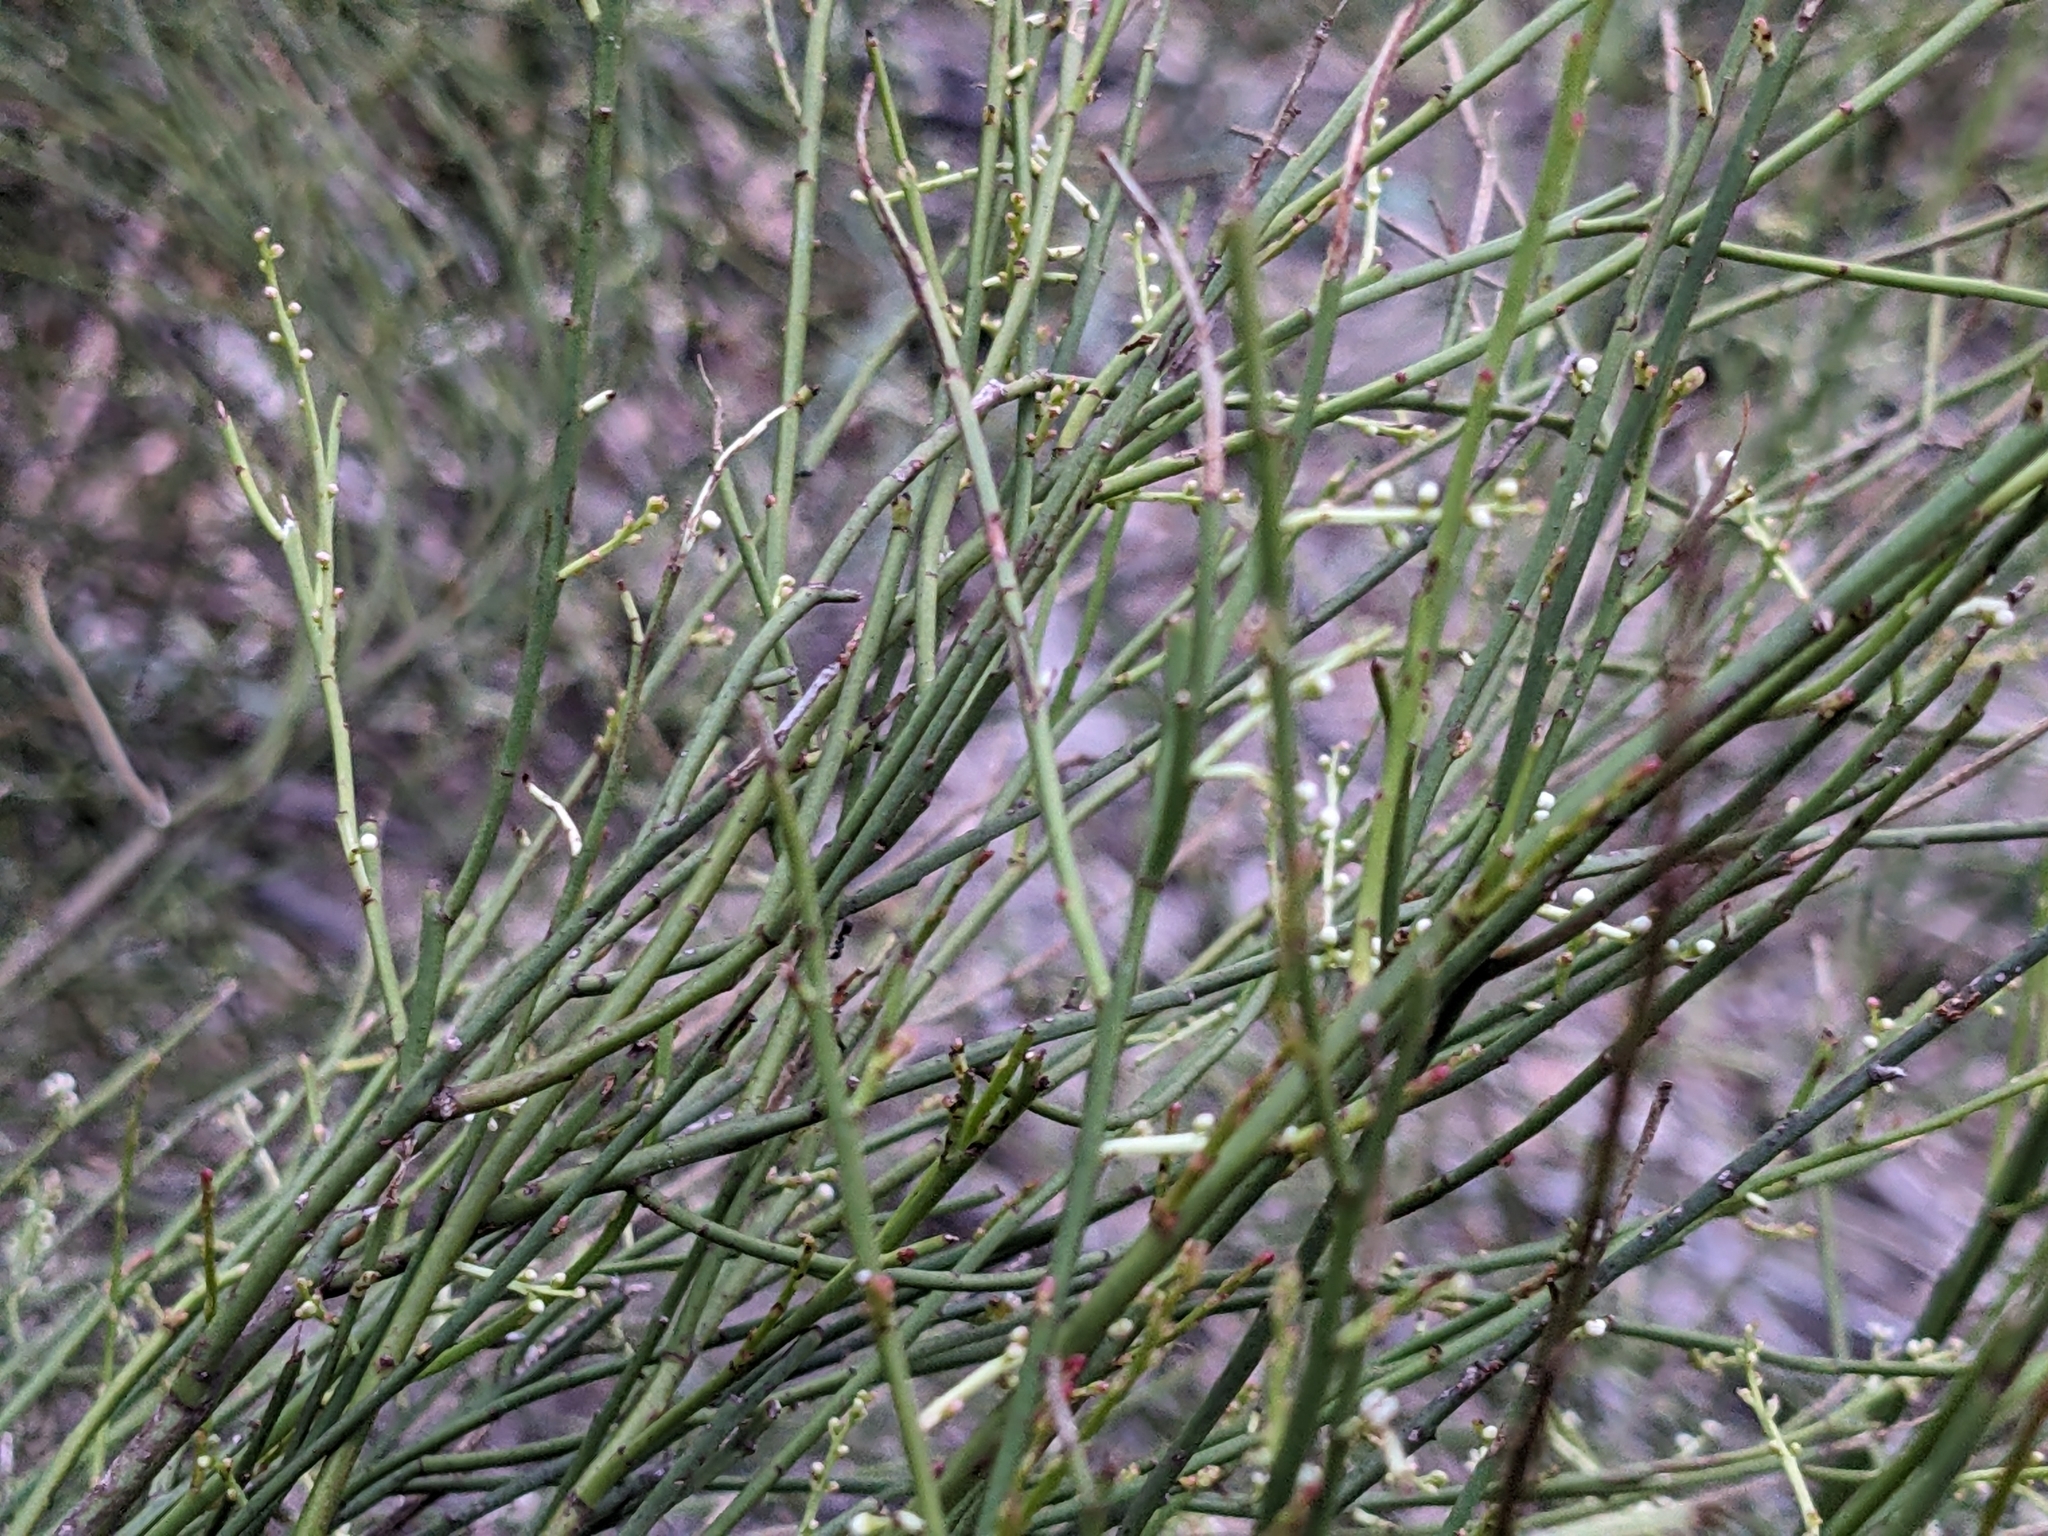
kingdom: Plantae
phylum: Tracheophyta
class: Magnoliopsida
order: Santalales
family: Amphorogynaceae
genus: Leptomeria
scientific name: Leptomeria drupacea
